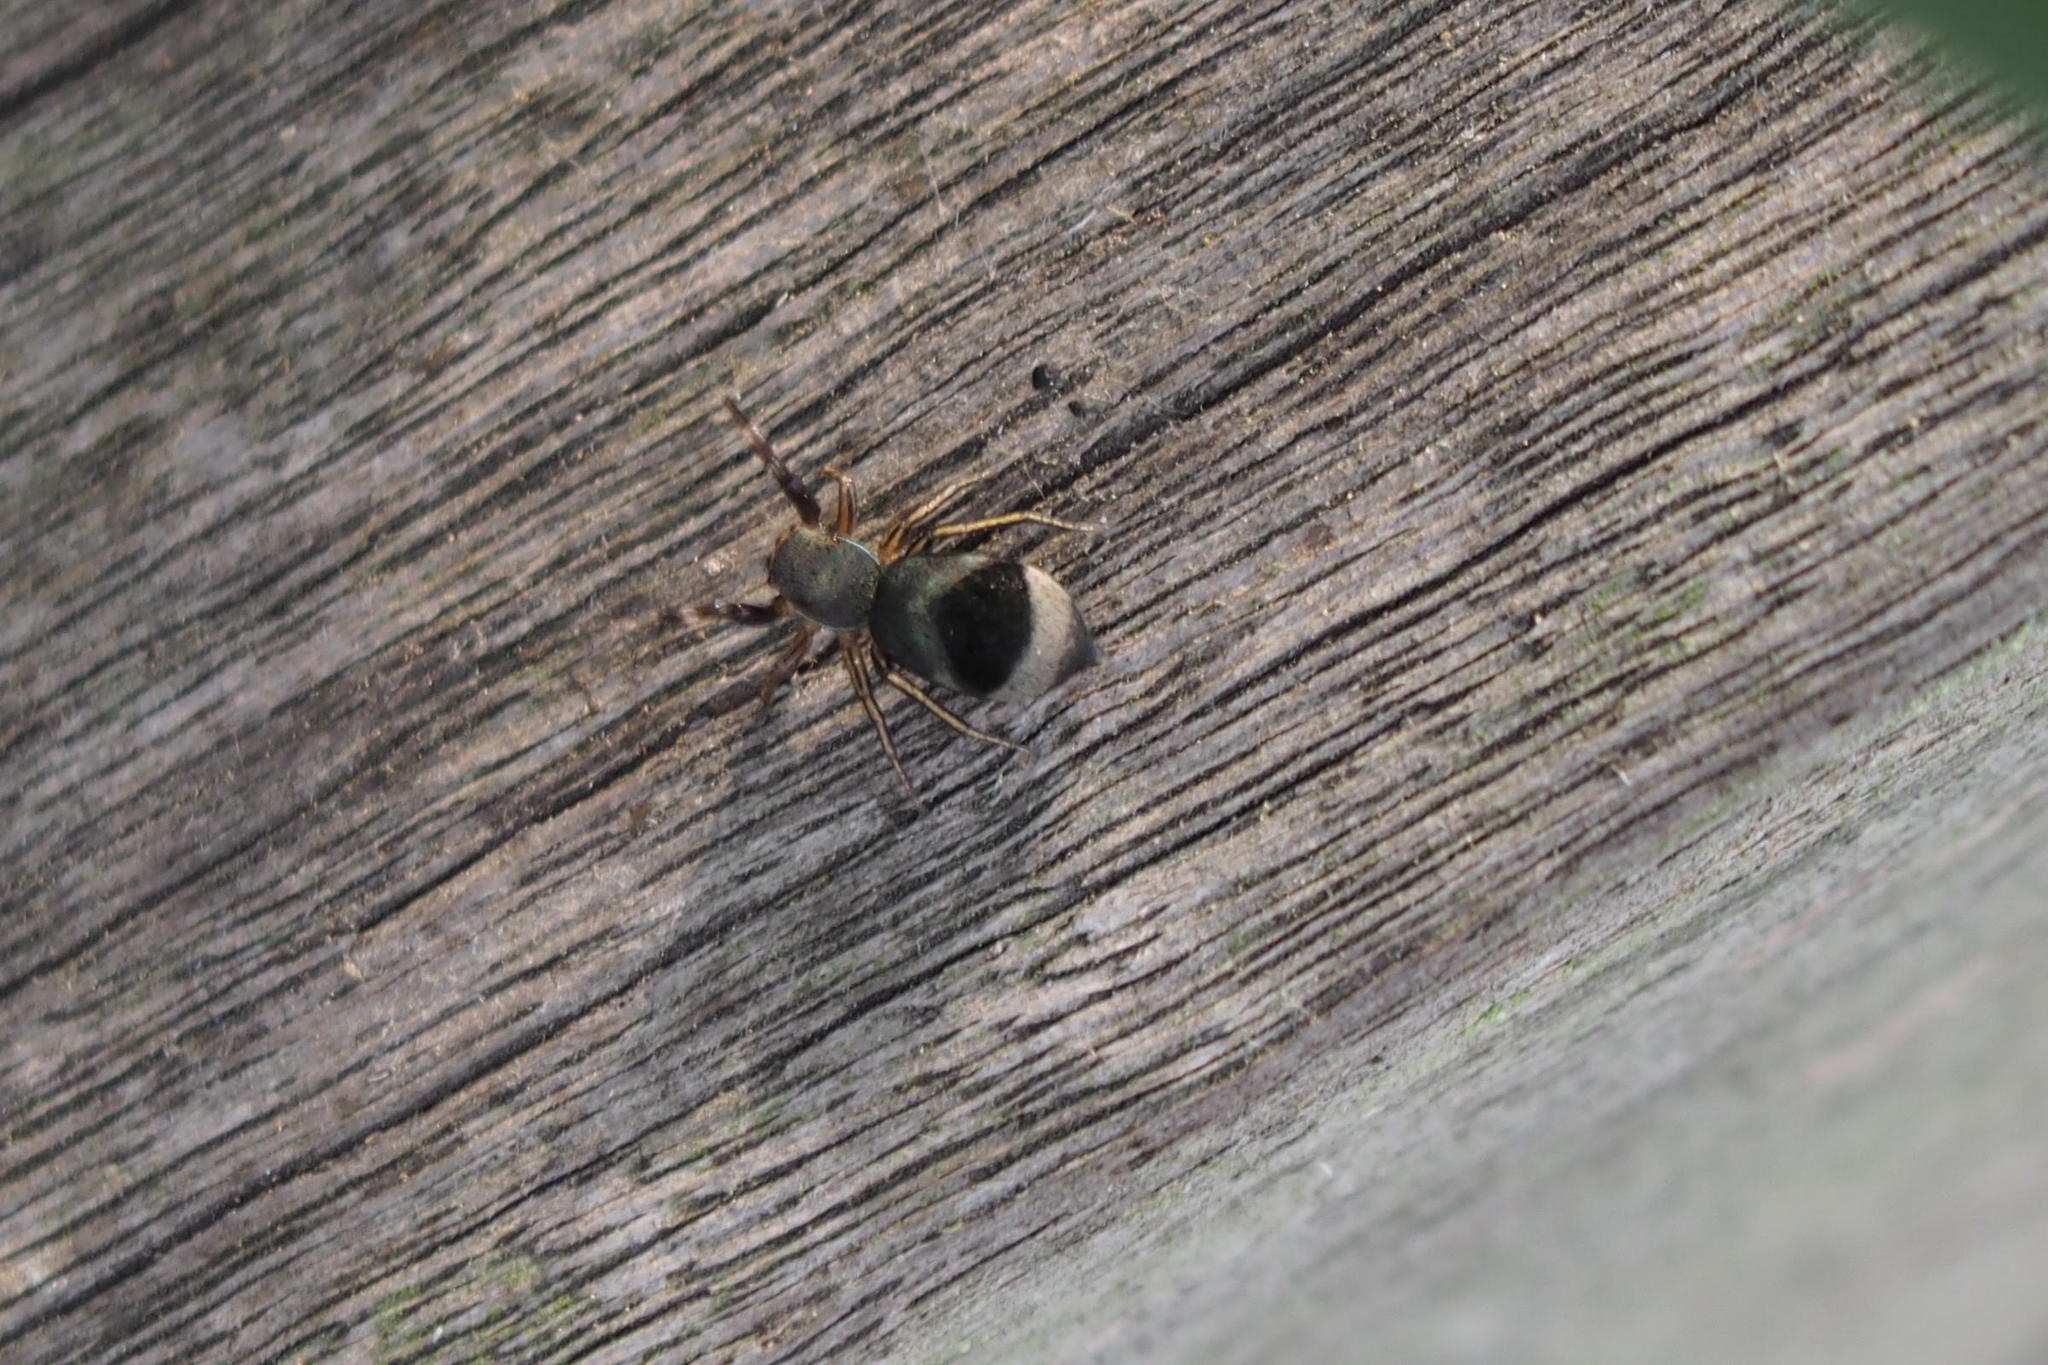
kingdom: Animalia
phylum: Arthropoda
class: Arachnida
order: Araneae
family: Salticidae
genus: Siler
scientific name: Siler cupreus
